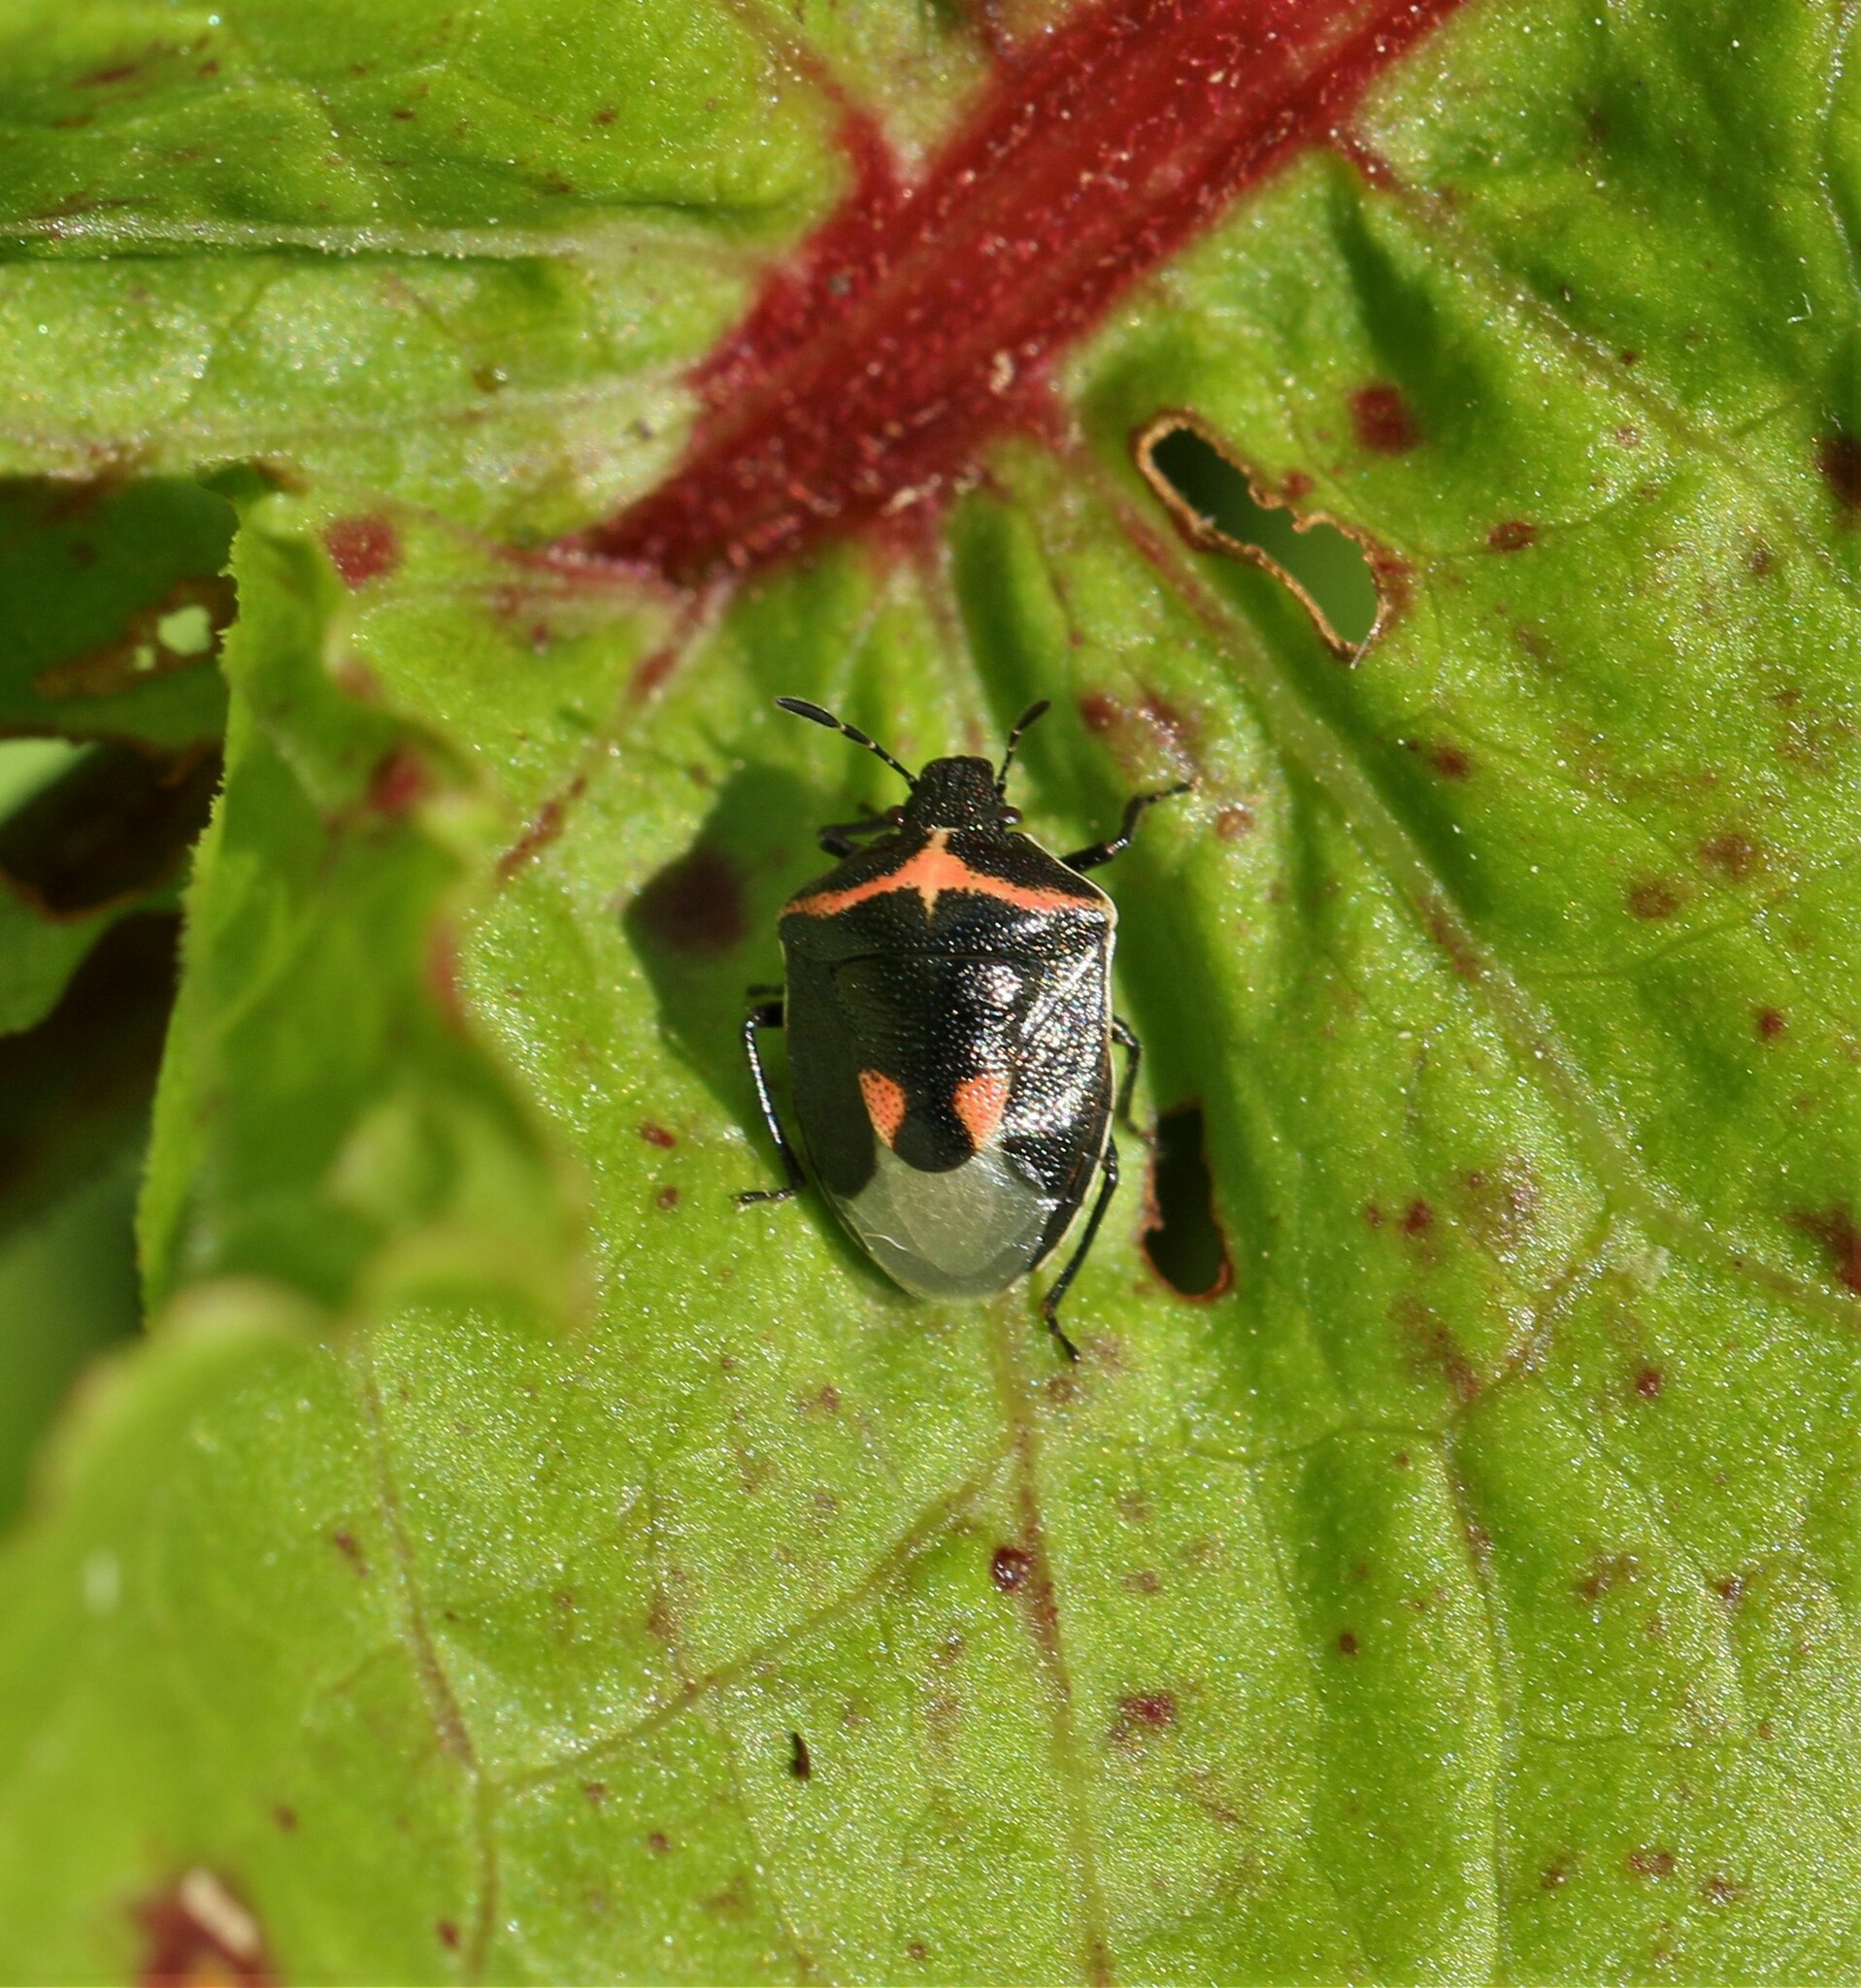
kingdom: Animalia
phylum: Arthropoda
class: Insecta
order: Hemiptera
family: Pentatomidae
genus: Cosmopepla
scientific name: Cosmopepla lintneriana
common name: Twice-stabbed stink bug
